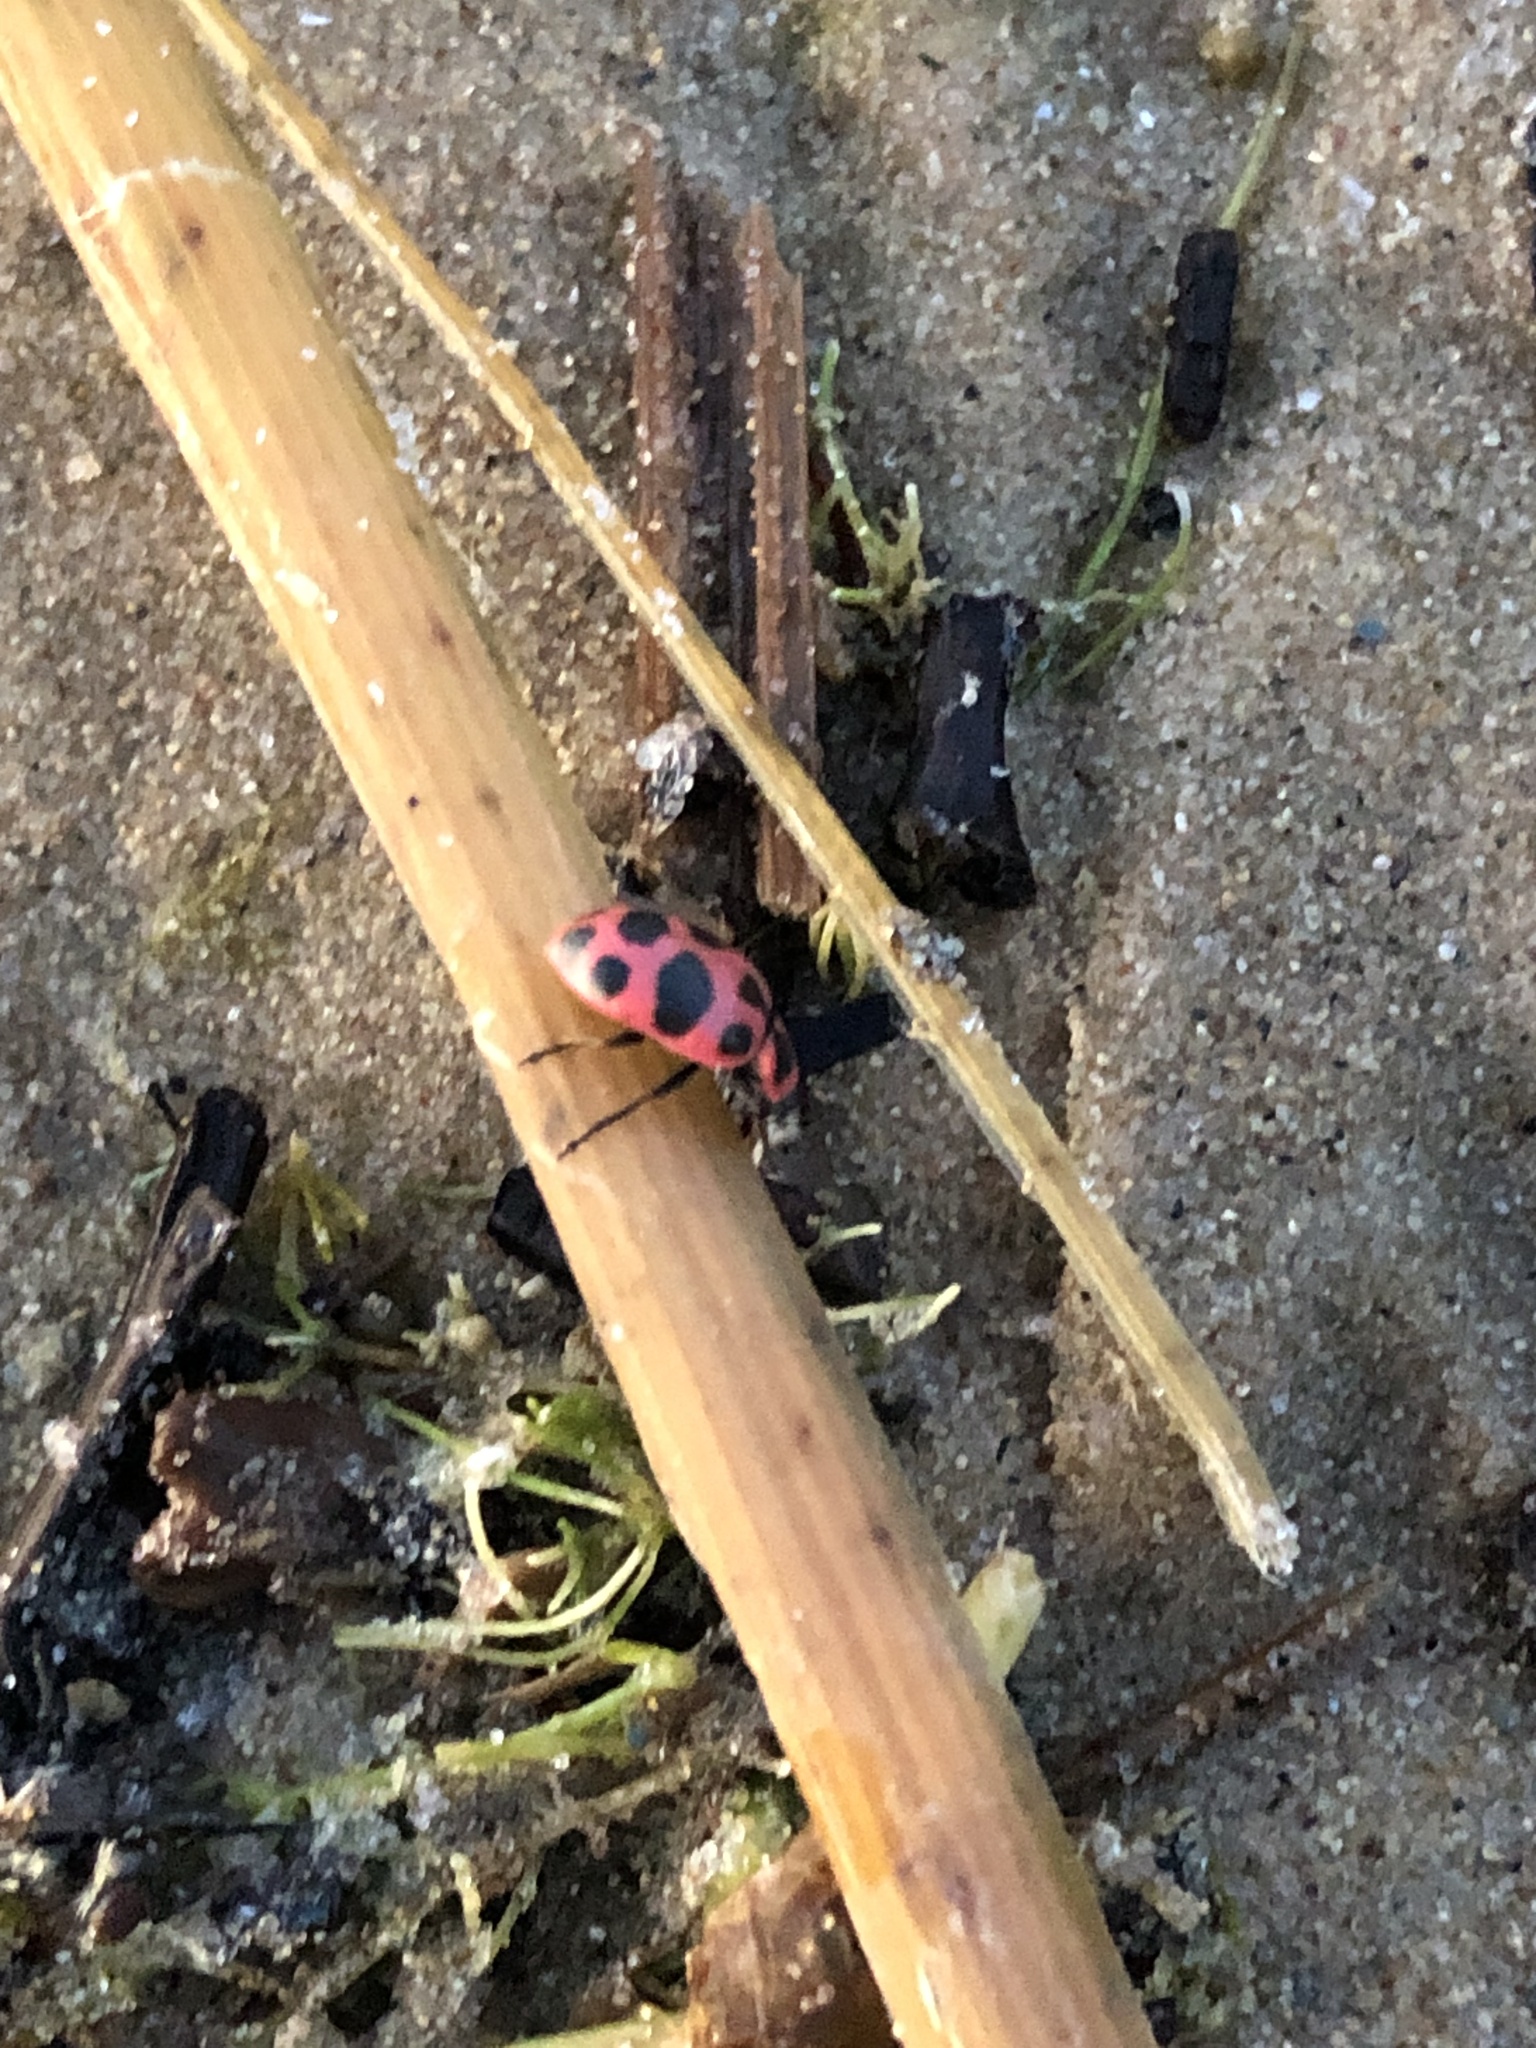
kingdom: Animalia
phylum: Arthropoda
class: Insecta
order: Coleoptera
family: Coccinellidae
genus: Coleomegilla
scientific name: Coleomegilla maculata
